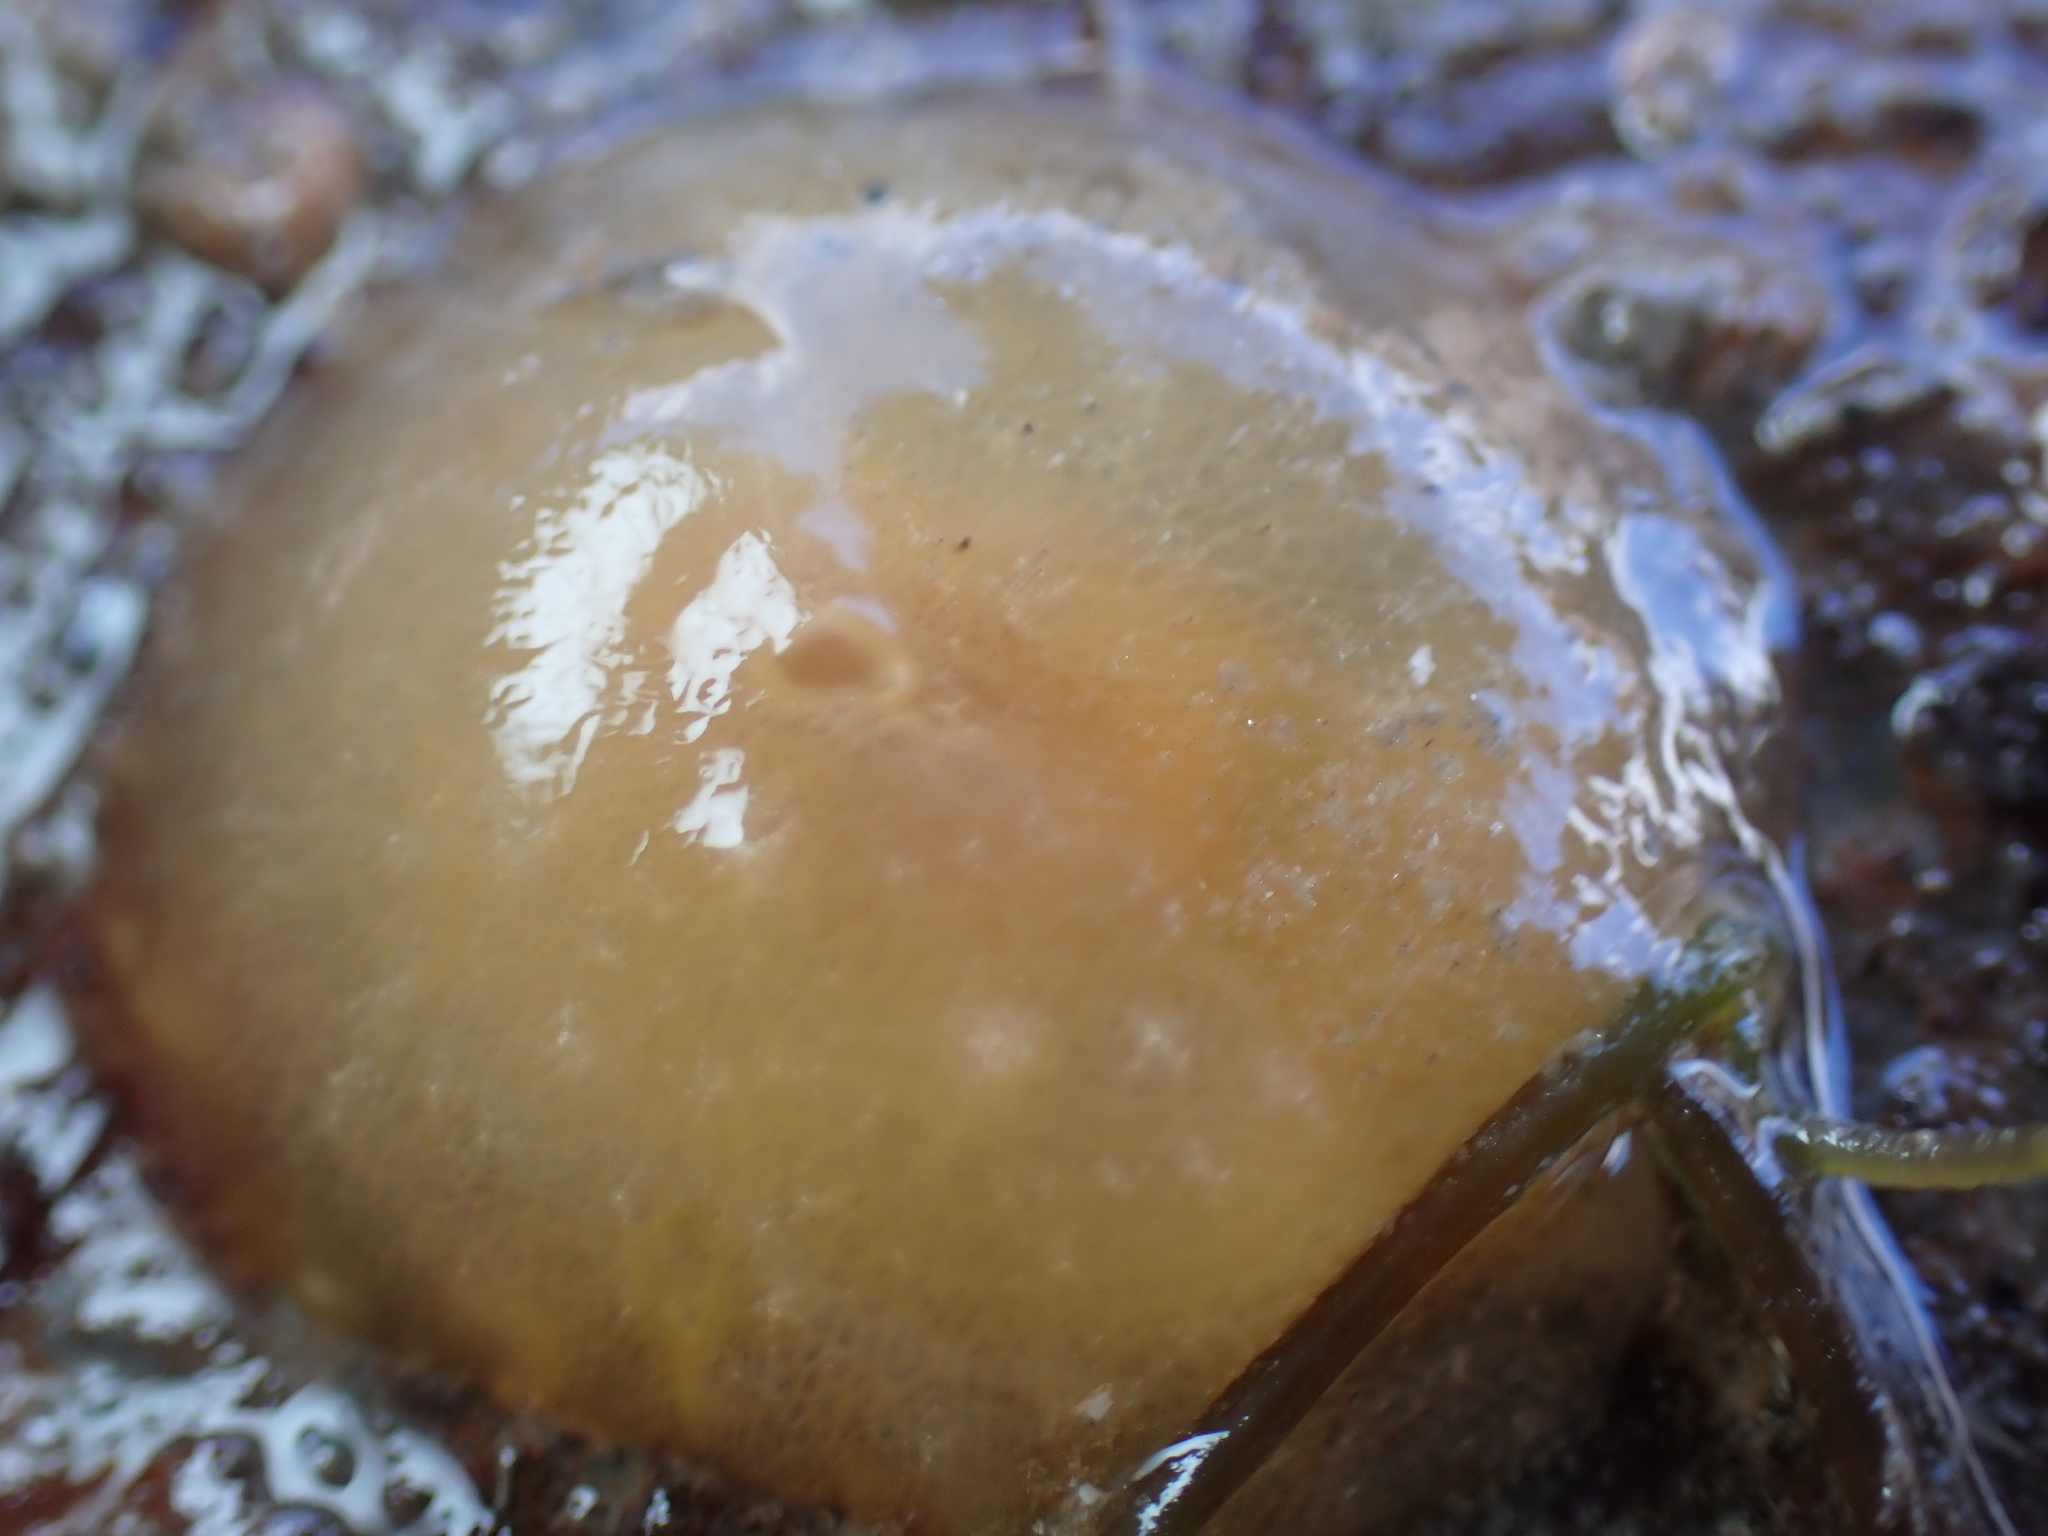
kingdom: Animalia
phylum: Mollusca
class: Gastropoda
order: Pleurobranchida
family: Pleurobranchidae
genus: Berthella
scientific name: Berthella plumula
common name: Yellow-plumed sea slug
